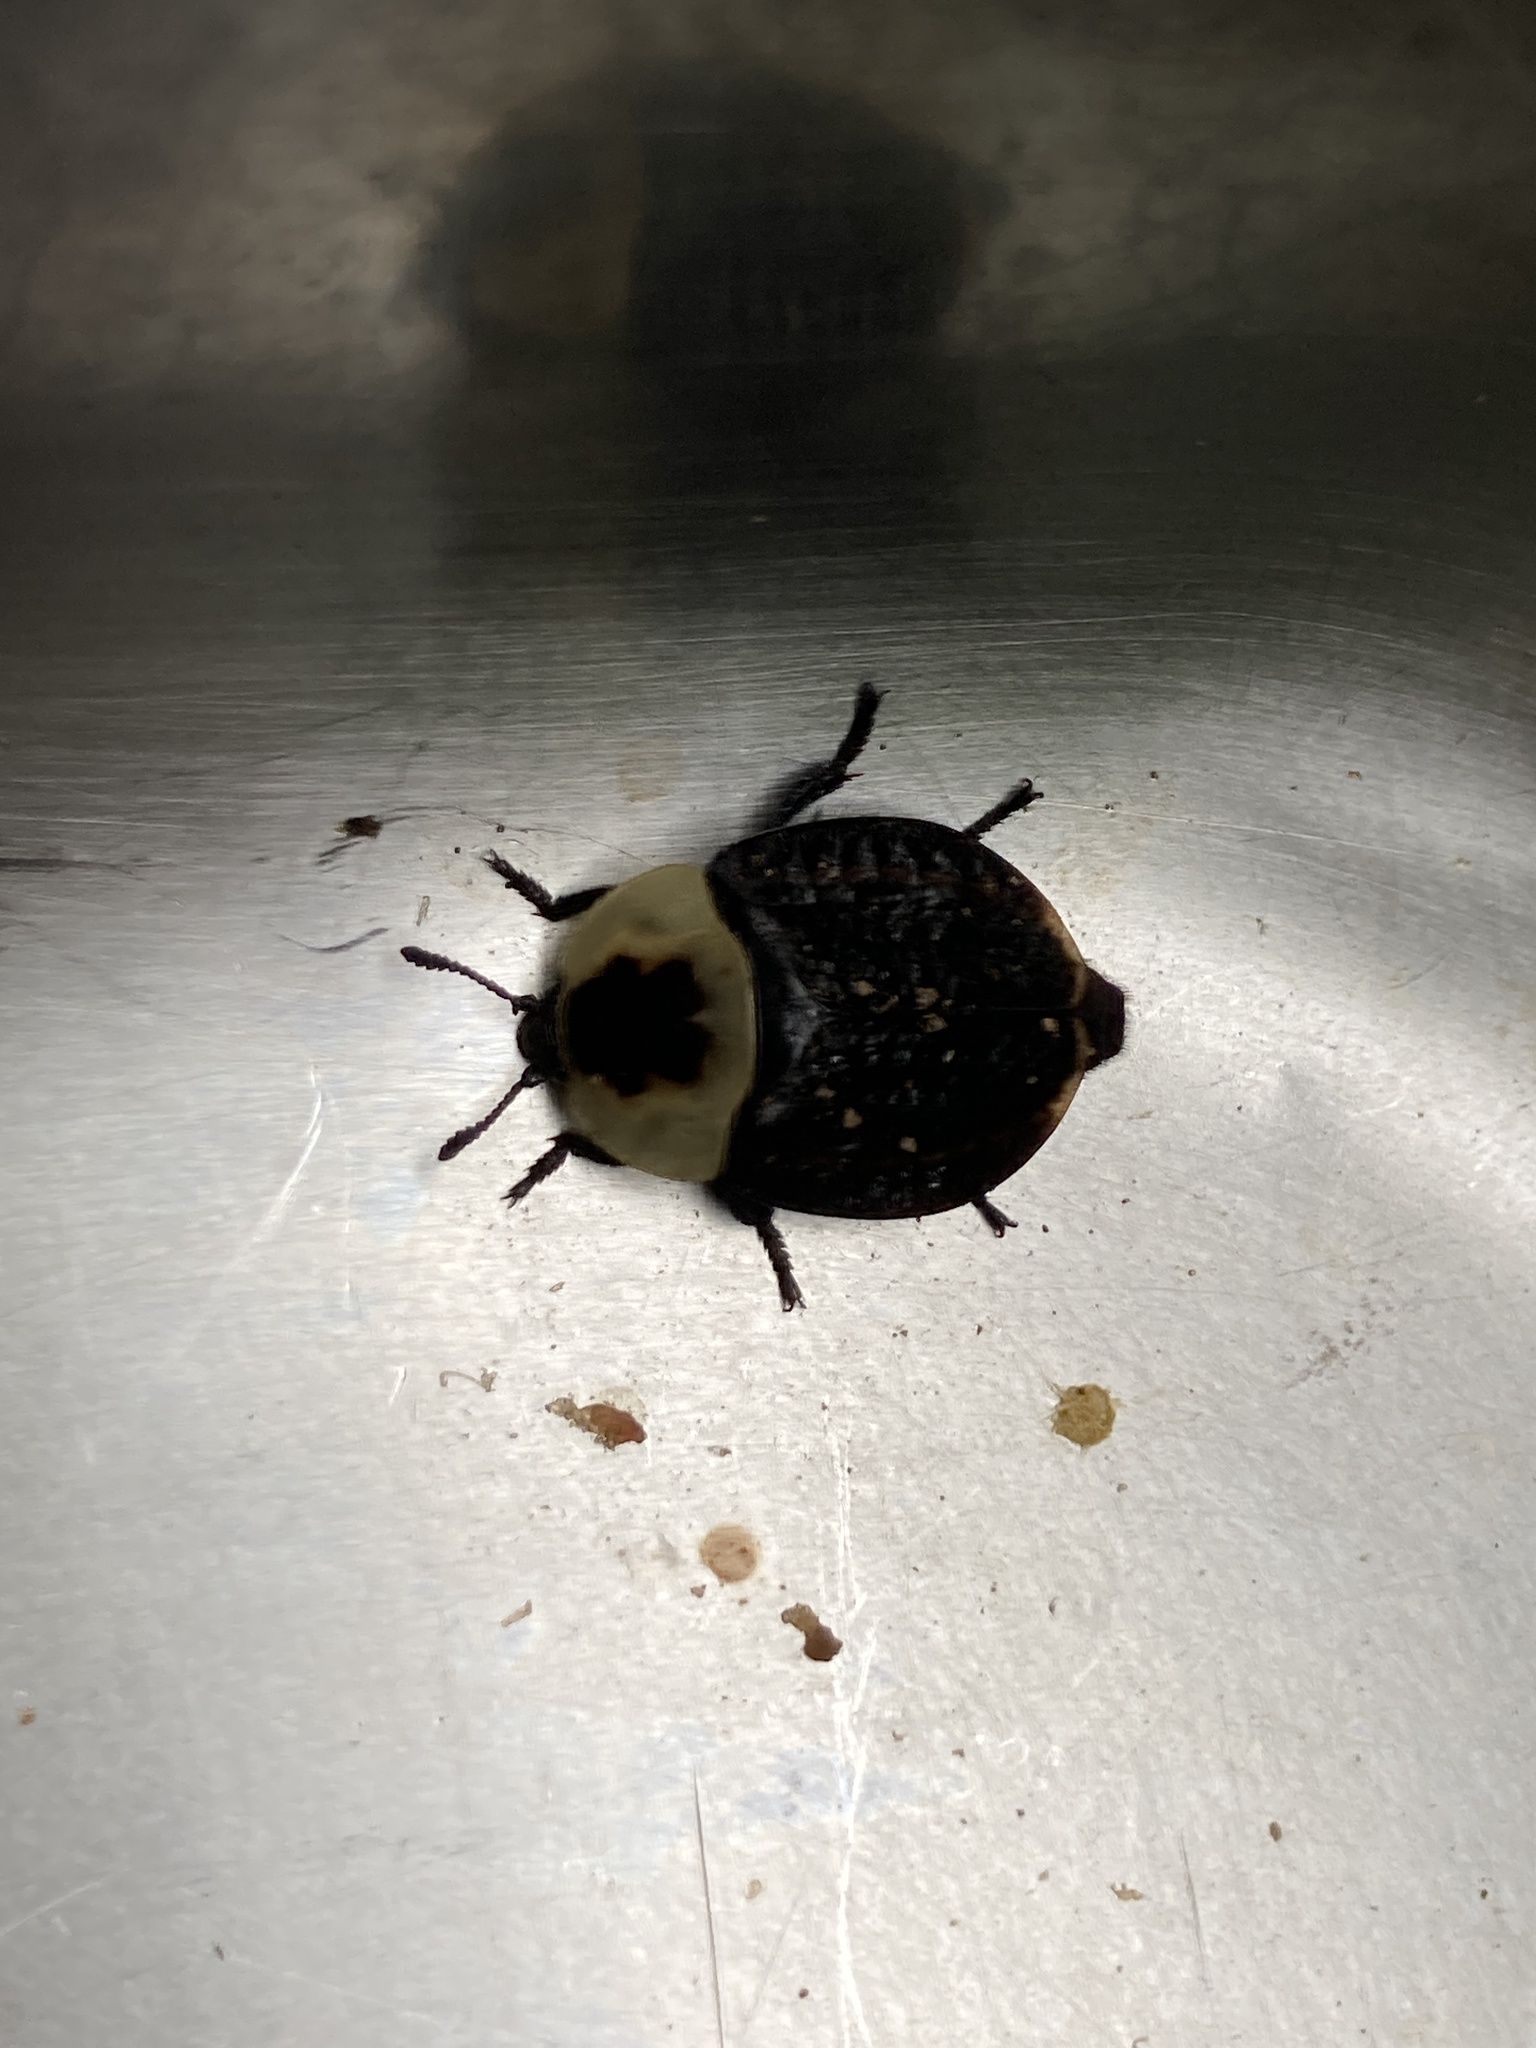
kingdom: Animalia
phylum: Arthropoda
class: Insecta
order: Coleoptera
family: Staphylinidae
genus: Necrophila
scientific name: Necrophila americana
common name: American carrion beetle
